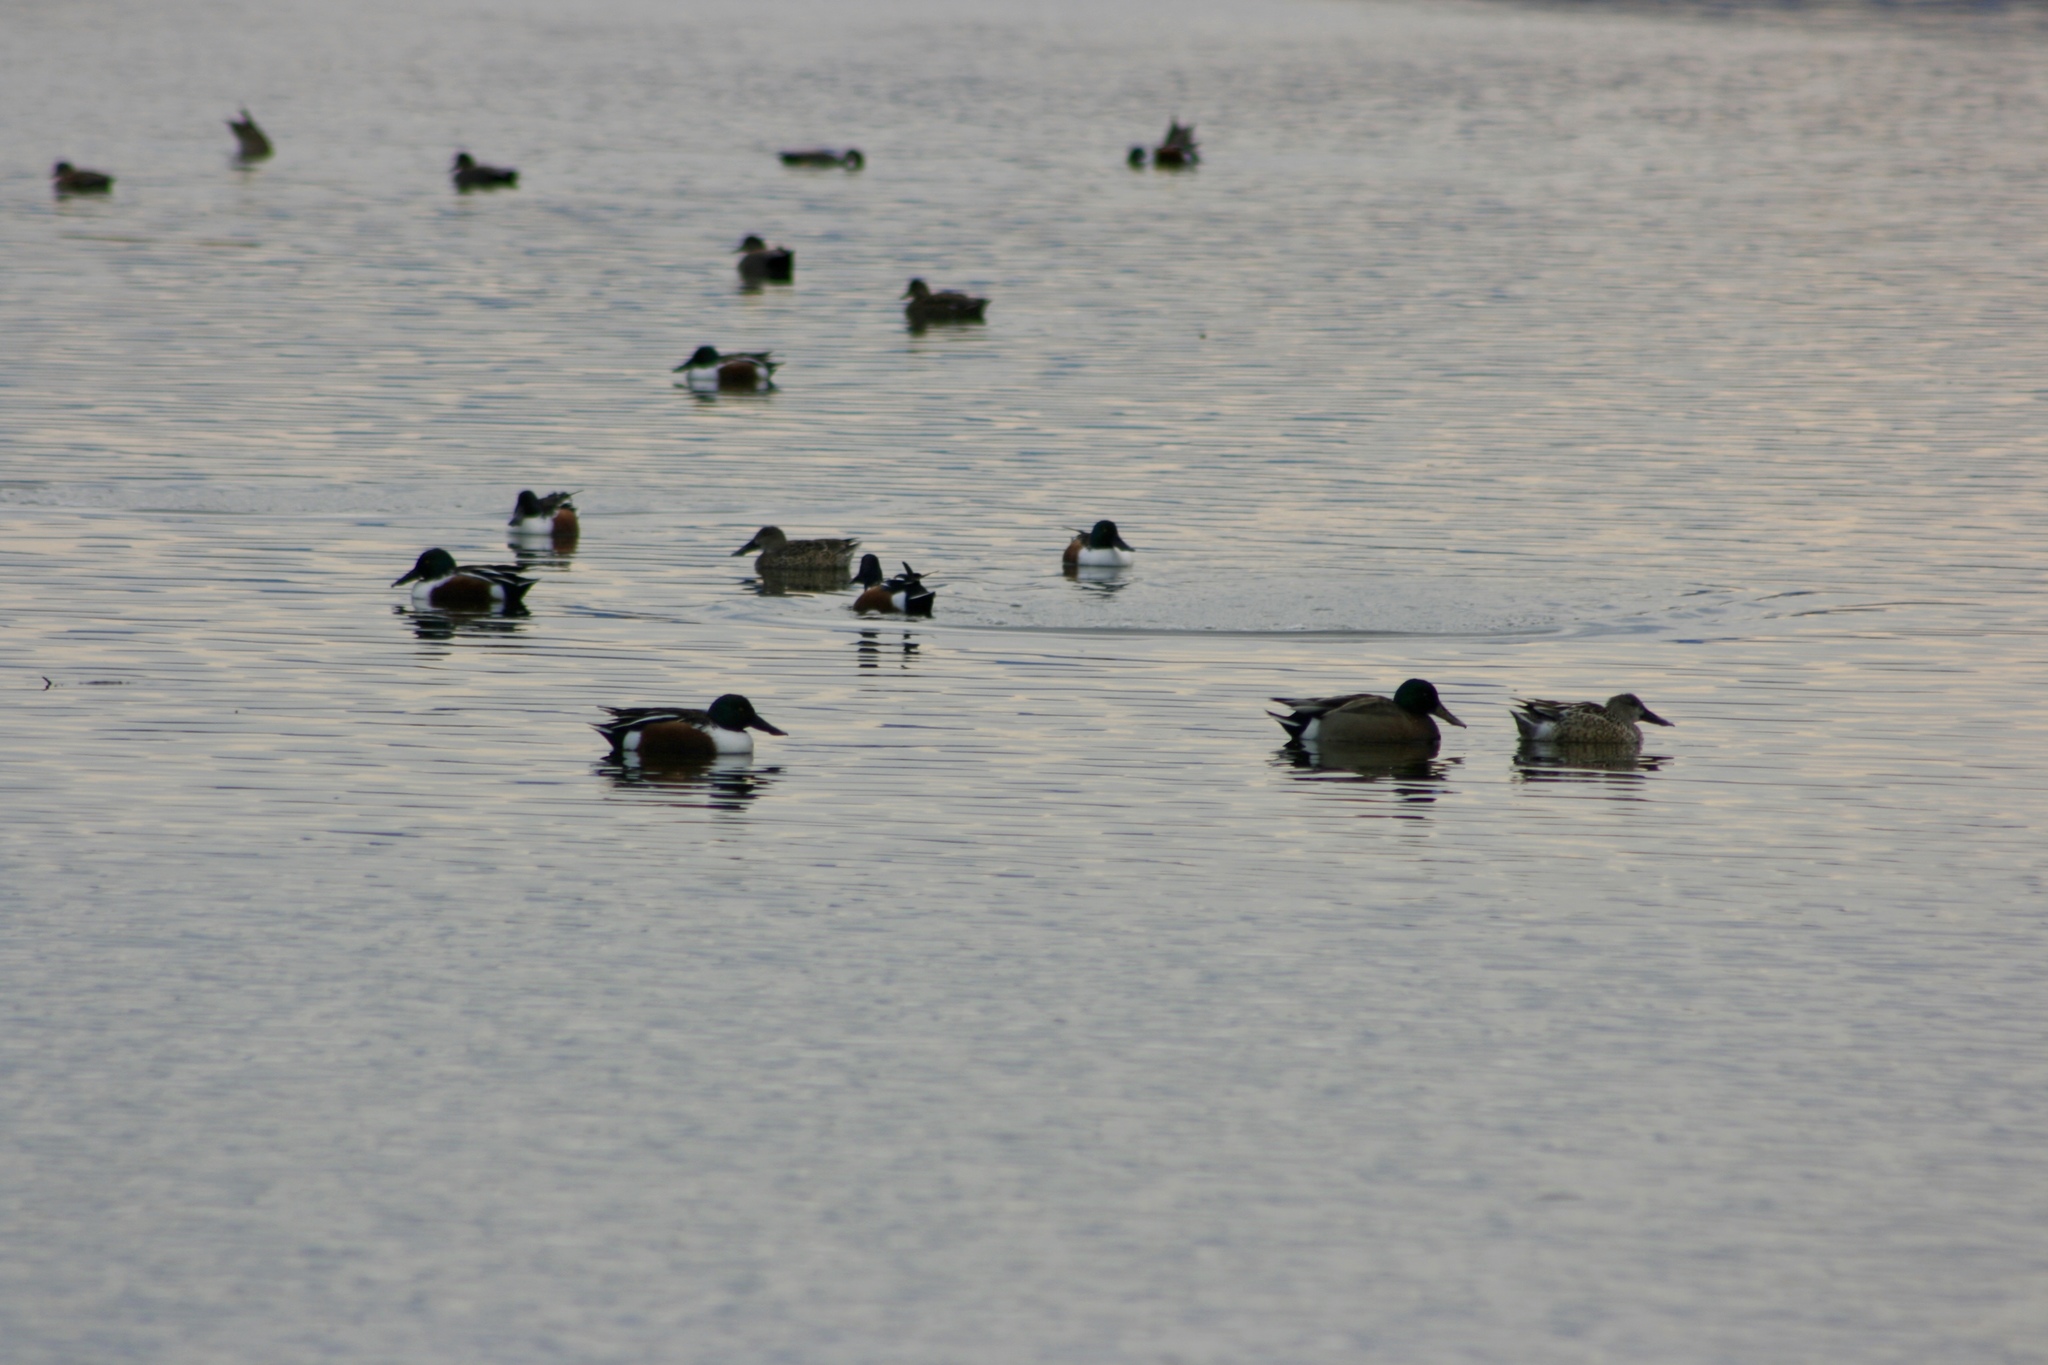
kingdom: Animalia
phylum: Chordata
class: Aves
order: Anseriformes
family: Anatidae
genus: Spatula
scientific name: Spatula clypeata
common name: Northern shoveler
